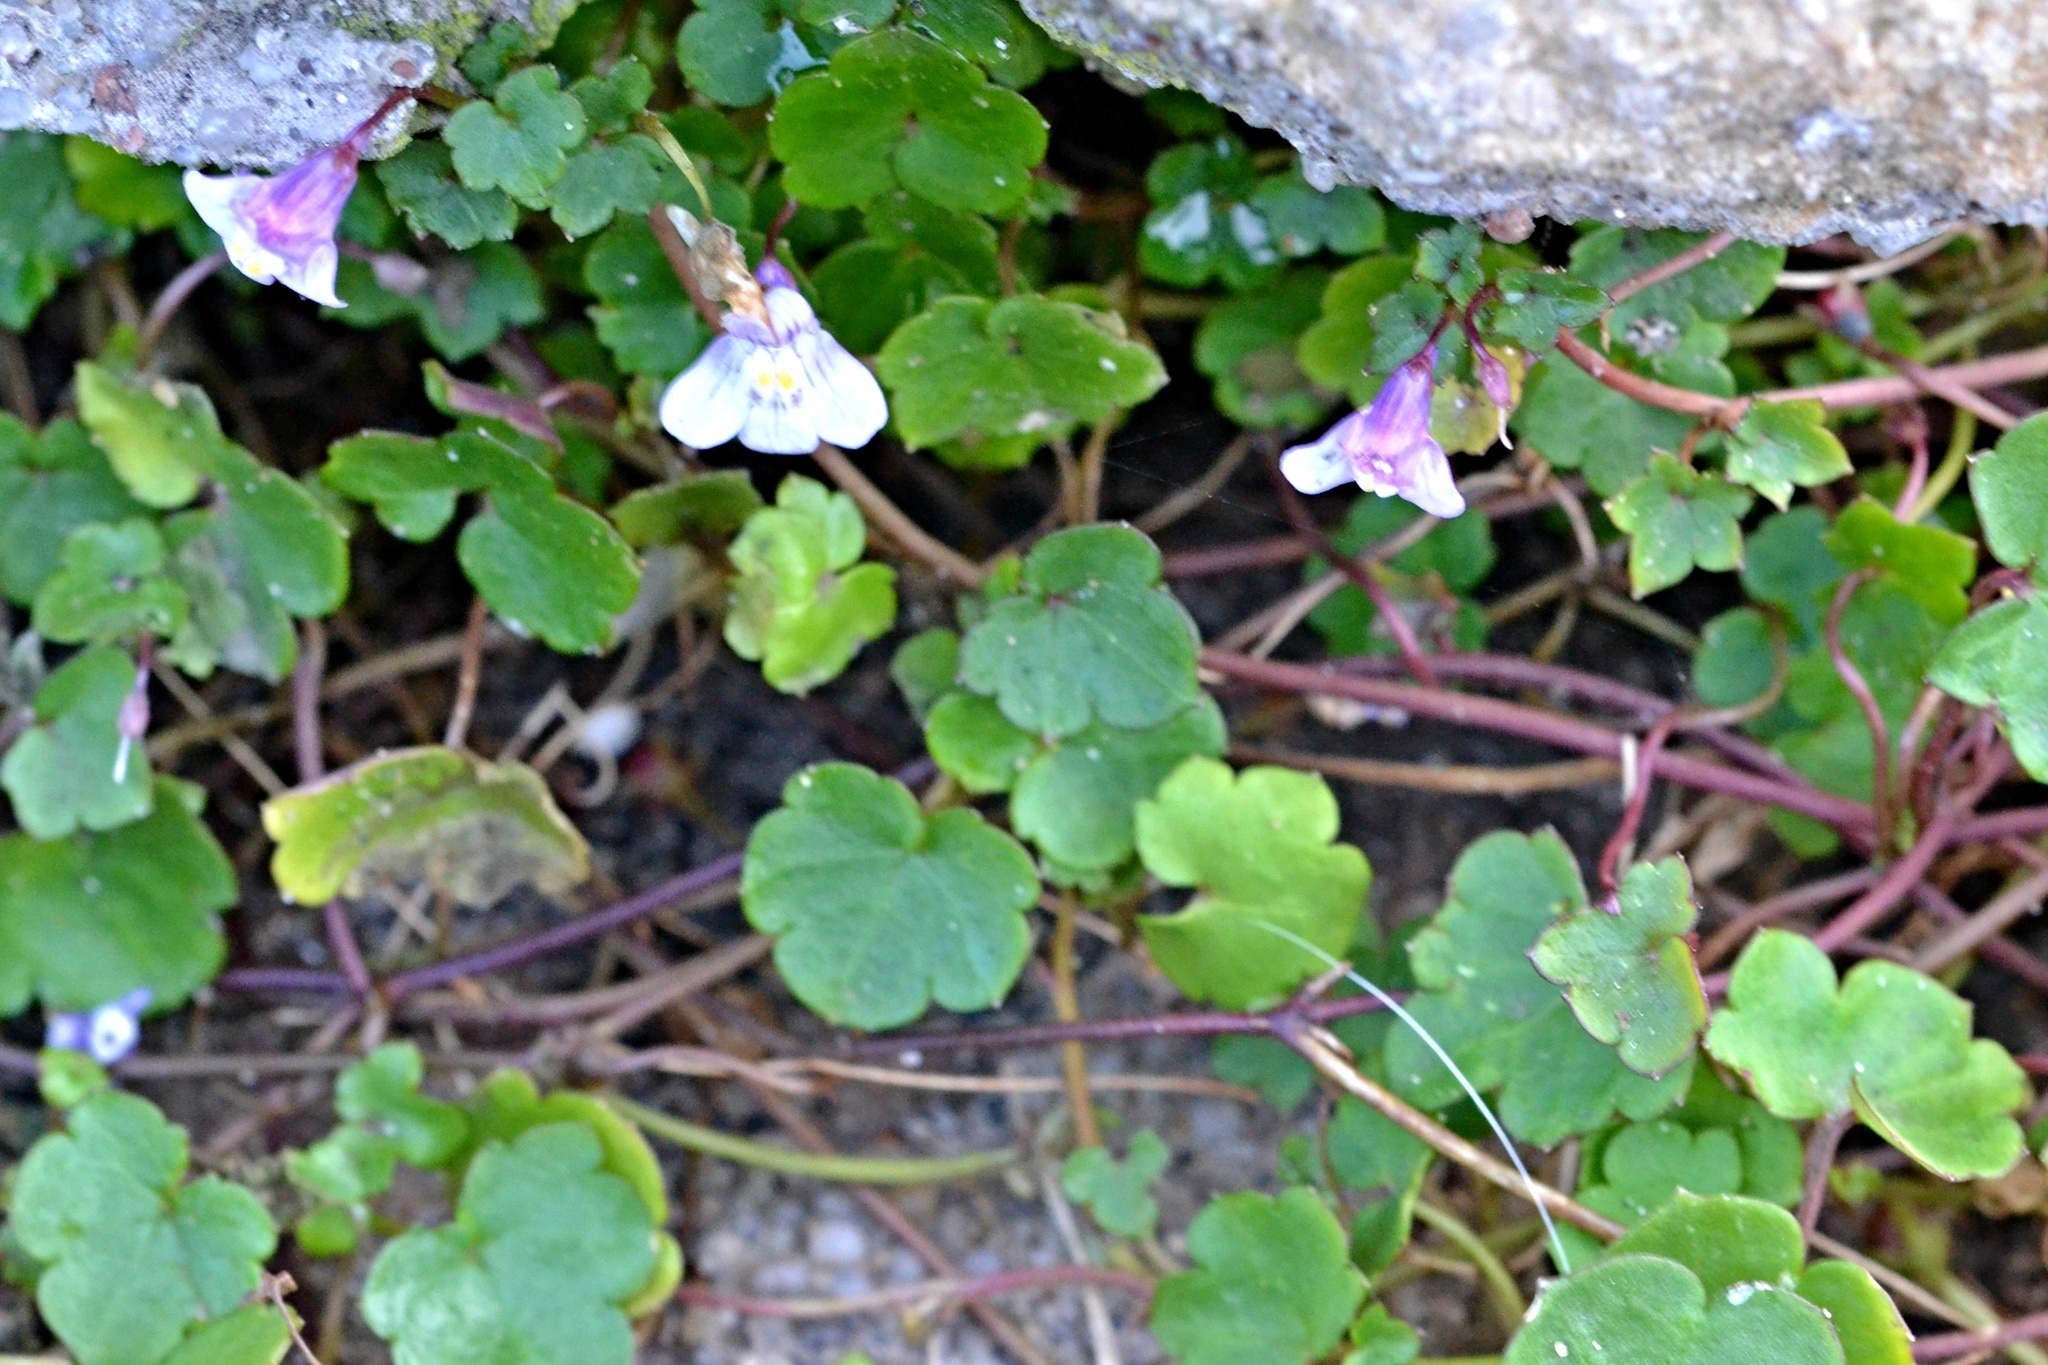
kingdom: Plantae
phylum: Tracheophyta
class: Magnoliopsida
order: Lamiales
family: Plantaginaceae
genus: Cymbalaria
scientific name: Cymbalaria muralis
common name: Ivy-leaved toadflax
